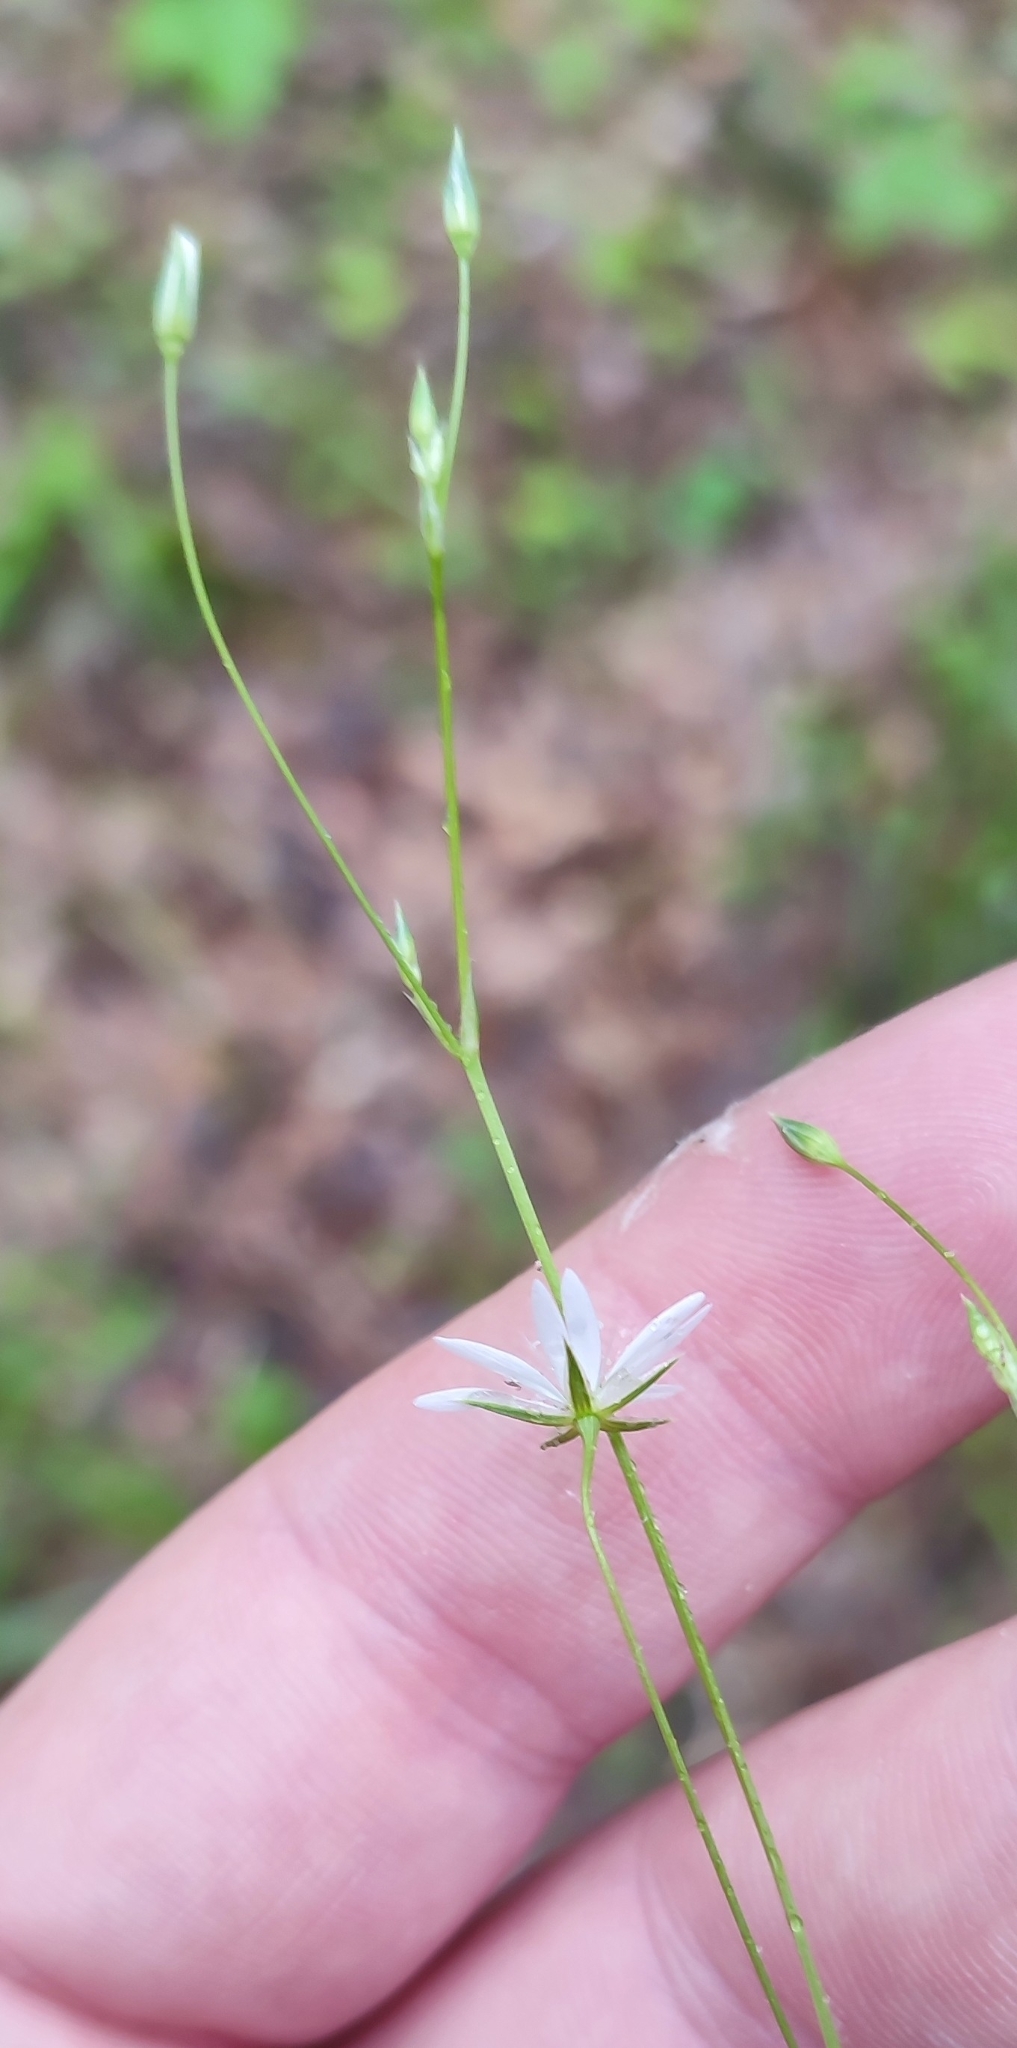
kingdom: Plantae
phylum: Tracheophyta
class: Magnoliopsida
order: Caryophyllales
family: Caryophyllaceae
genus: Stellaria
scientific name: Stellaria graminea
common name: Grass-like starwort
